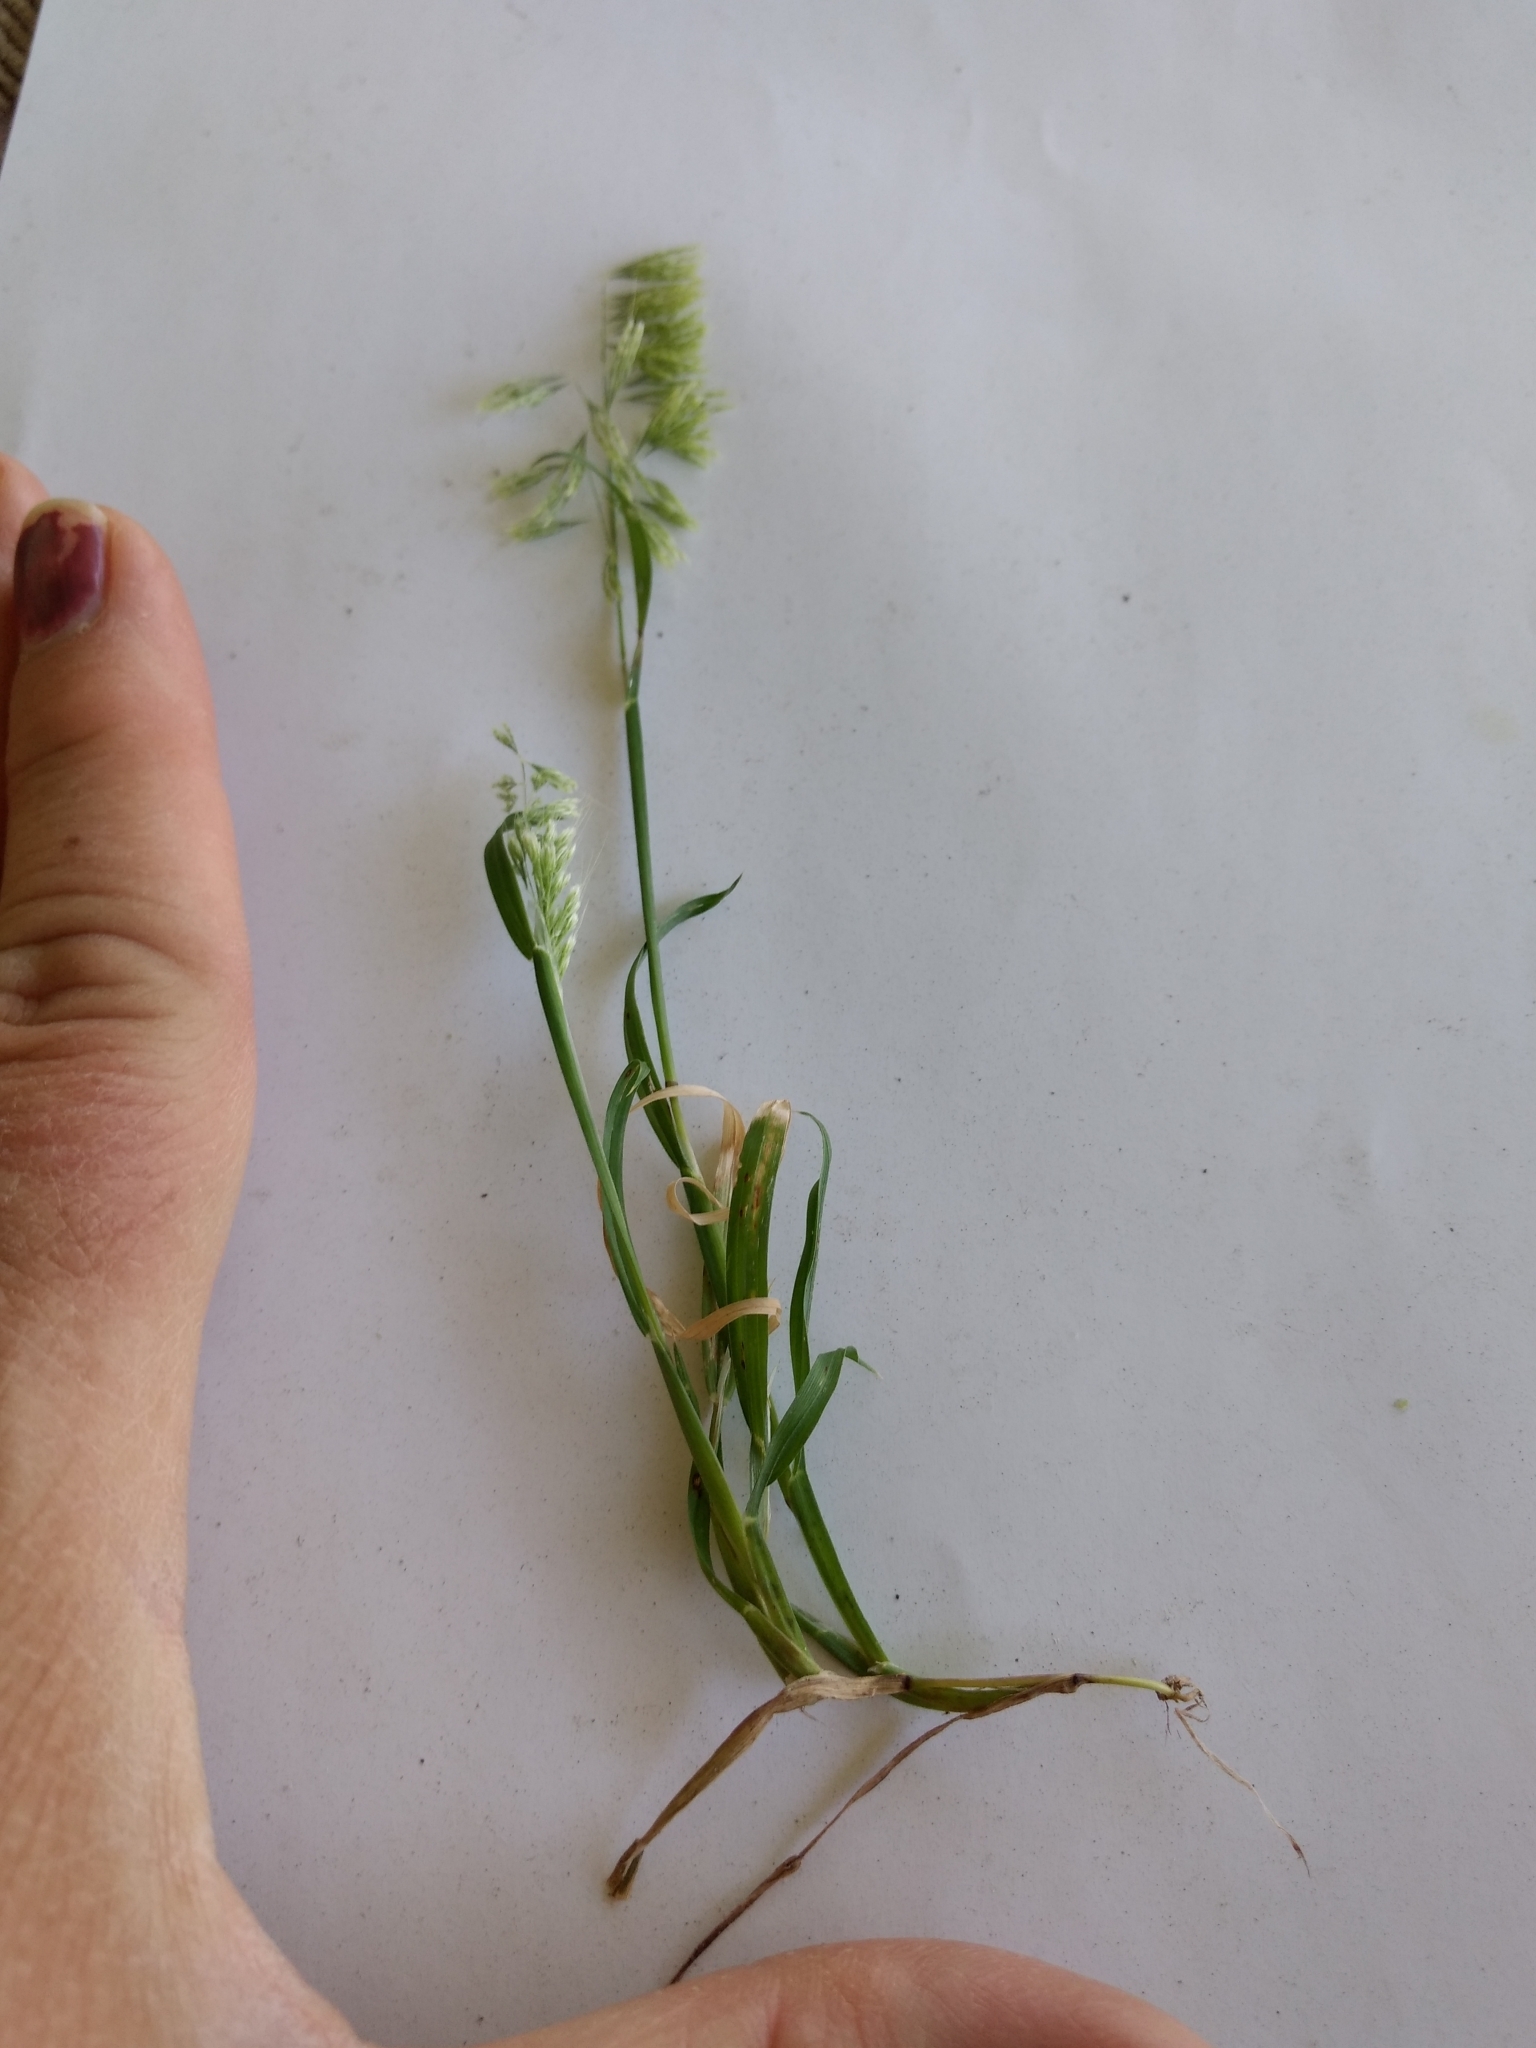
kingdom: Plantae
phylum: Tracheophyta
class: Liliopsida
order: Poales
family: Poaceae
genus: Lamarckia
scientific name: Lamarckia aurea
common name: Golden dog's-tail
